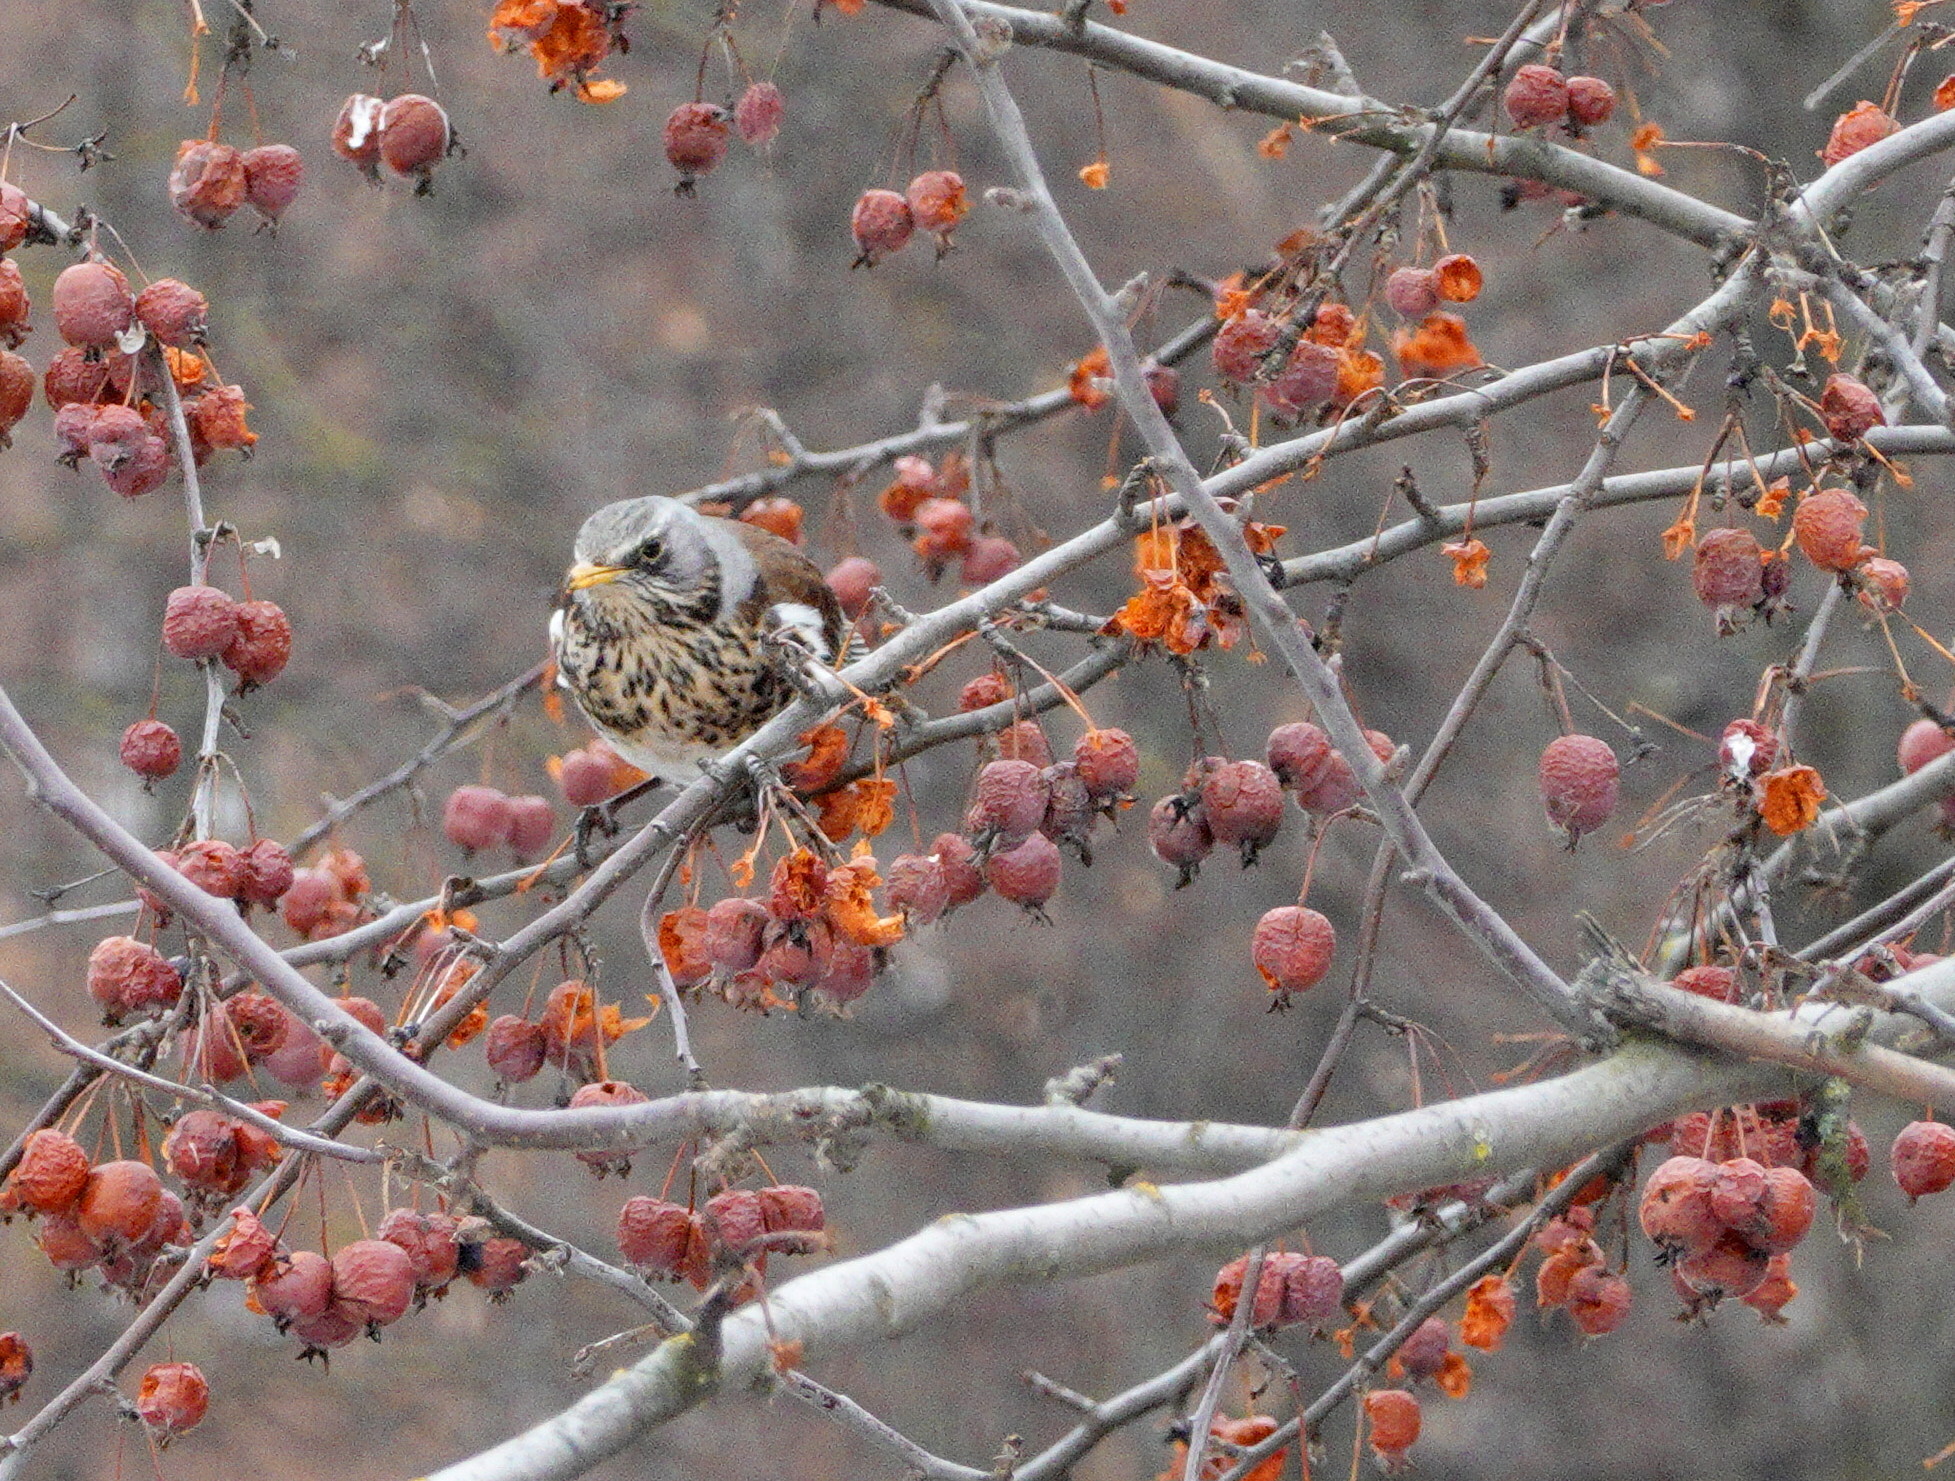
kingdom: Animalia
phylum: Chordata
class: Aves
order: Passeriformes
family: Turdidae
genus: Turdus
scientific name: Turdus pilaris
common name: Fieldfare
